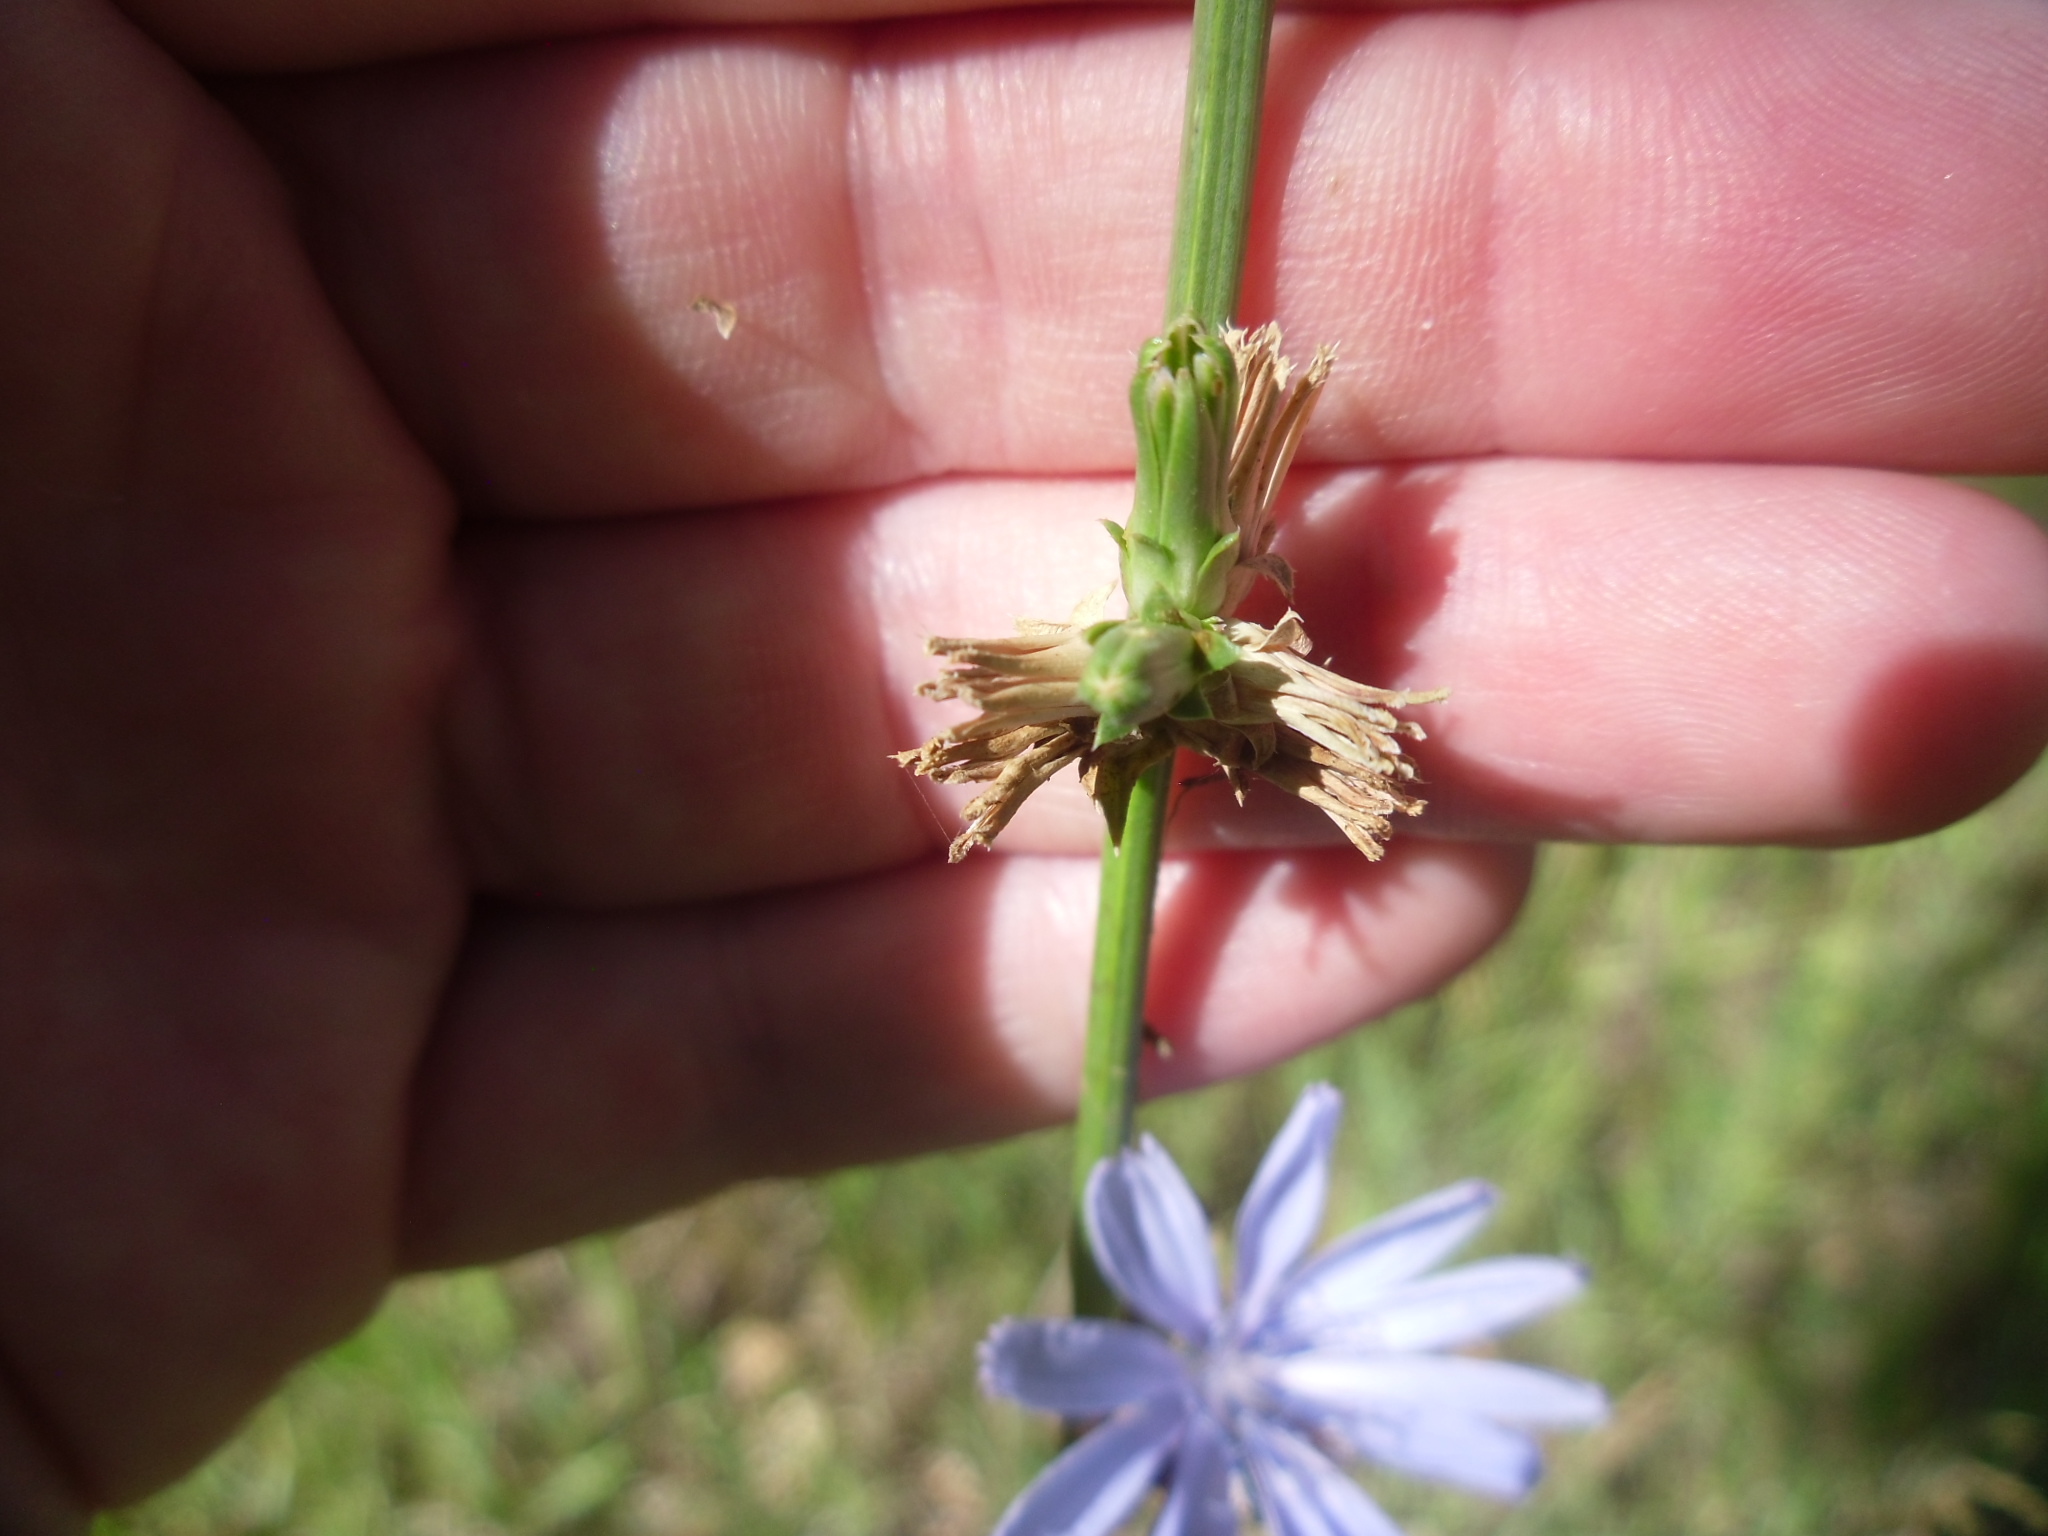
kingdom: Plantae
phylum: Tracheophyta
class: Magnoliopsida
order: Asterales
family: Asteraceae
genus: Cichorium
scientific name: Cichorium intybus
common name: Chicory
